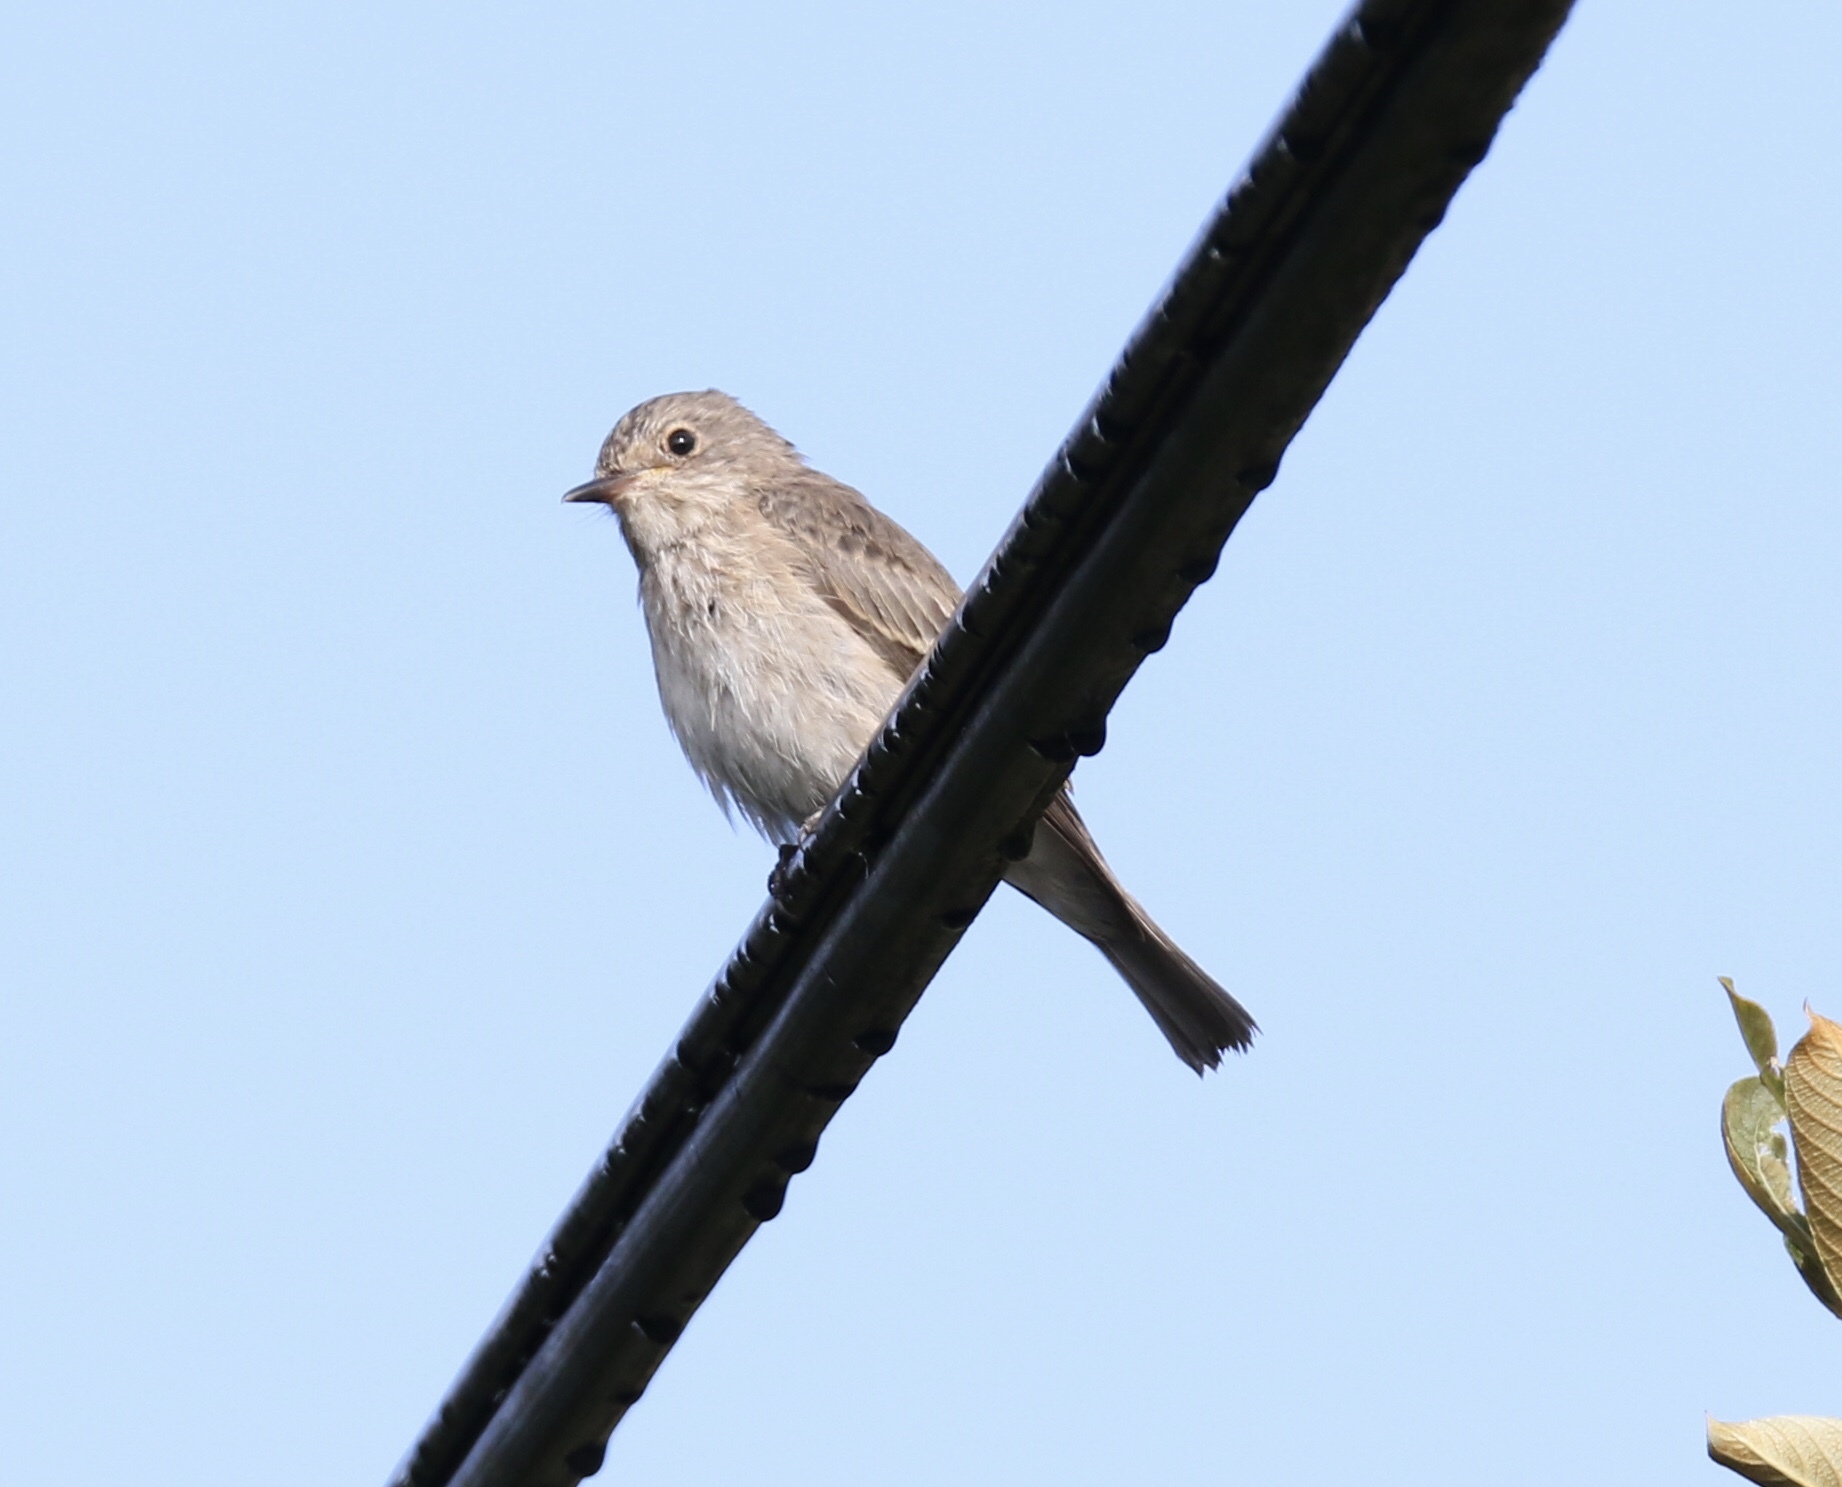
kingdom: Animalia
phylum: Chordata
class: Aves
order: Passeriformes
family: Muscicapidae
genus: Muscicapa
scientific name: Muscicapa striata
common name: Spotted flycatcher
